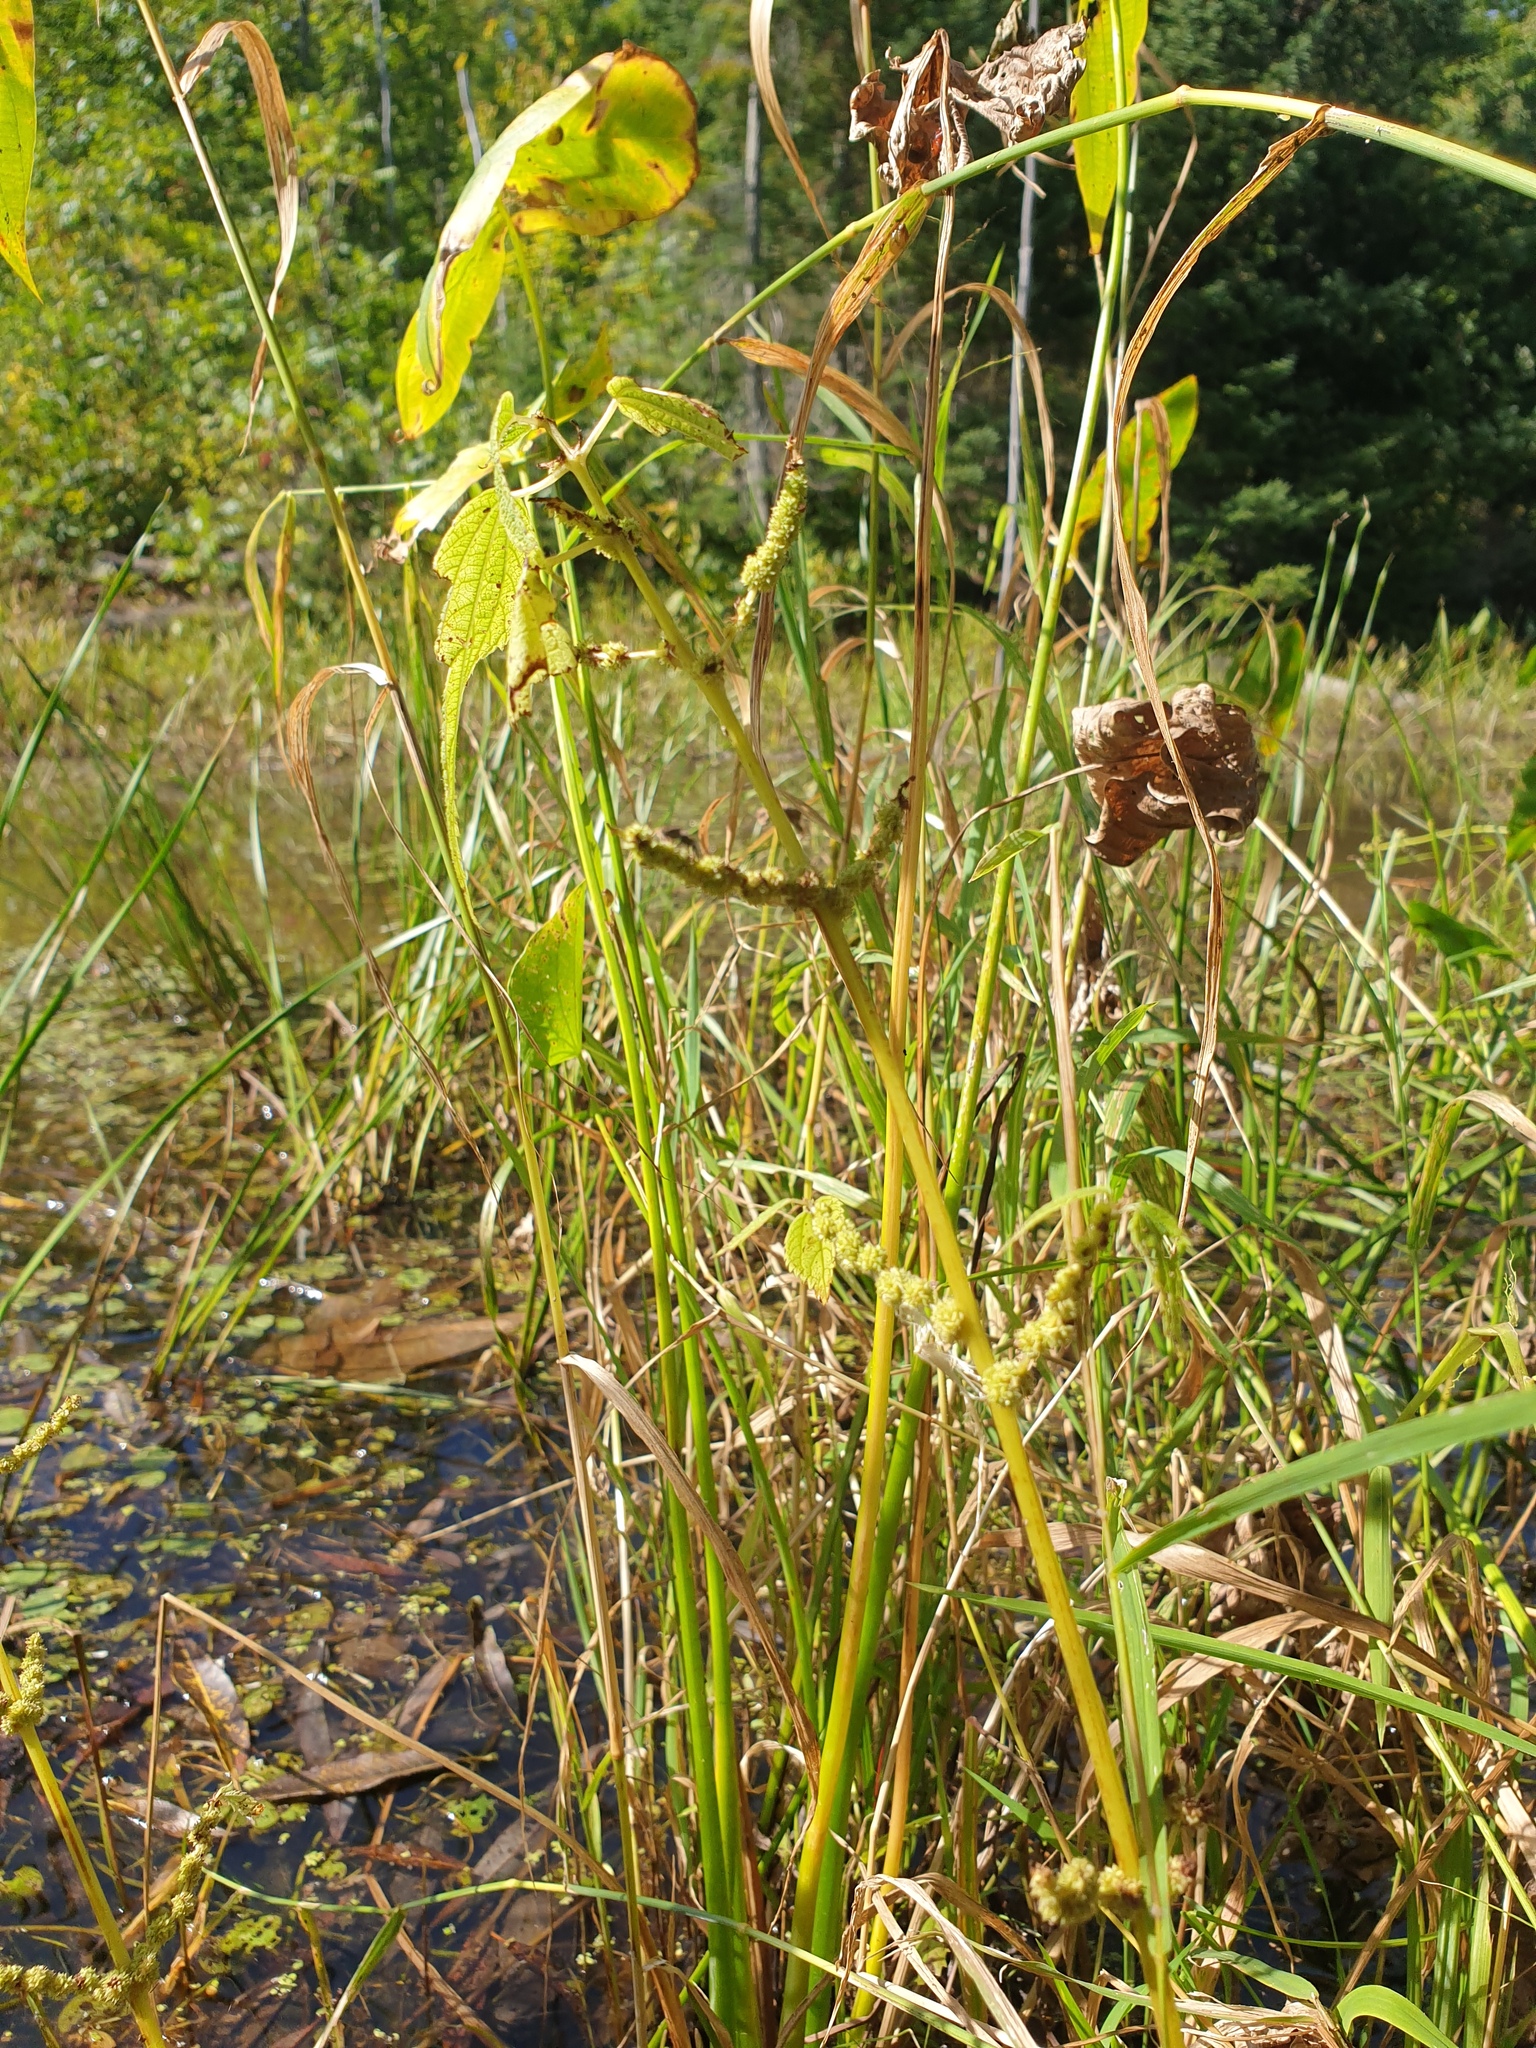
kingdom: Plantae
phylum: Tracheophyta
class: Magnoliopsida
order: Rosales
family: Urticaceae
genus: Boehmeria
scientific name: Boehmeria cylindrica
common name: Bog-hemp
